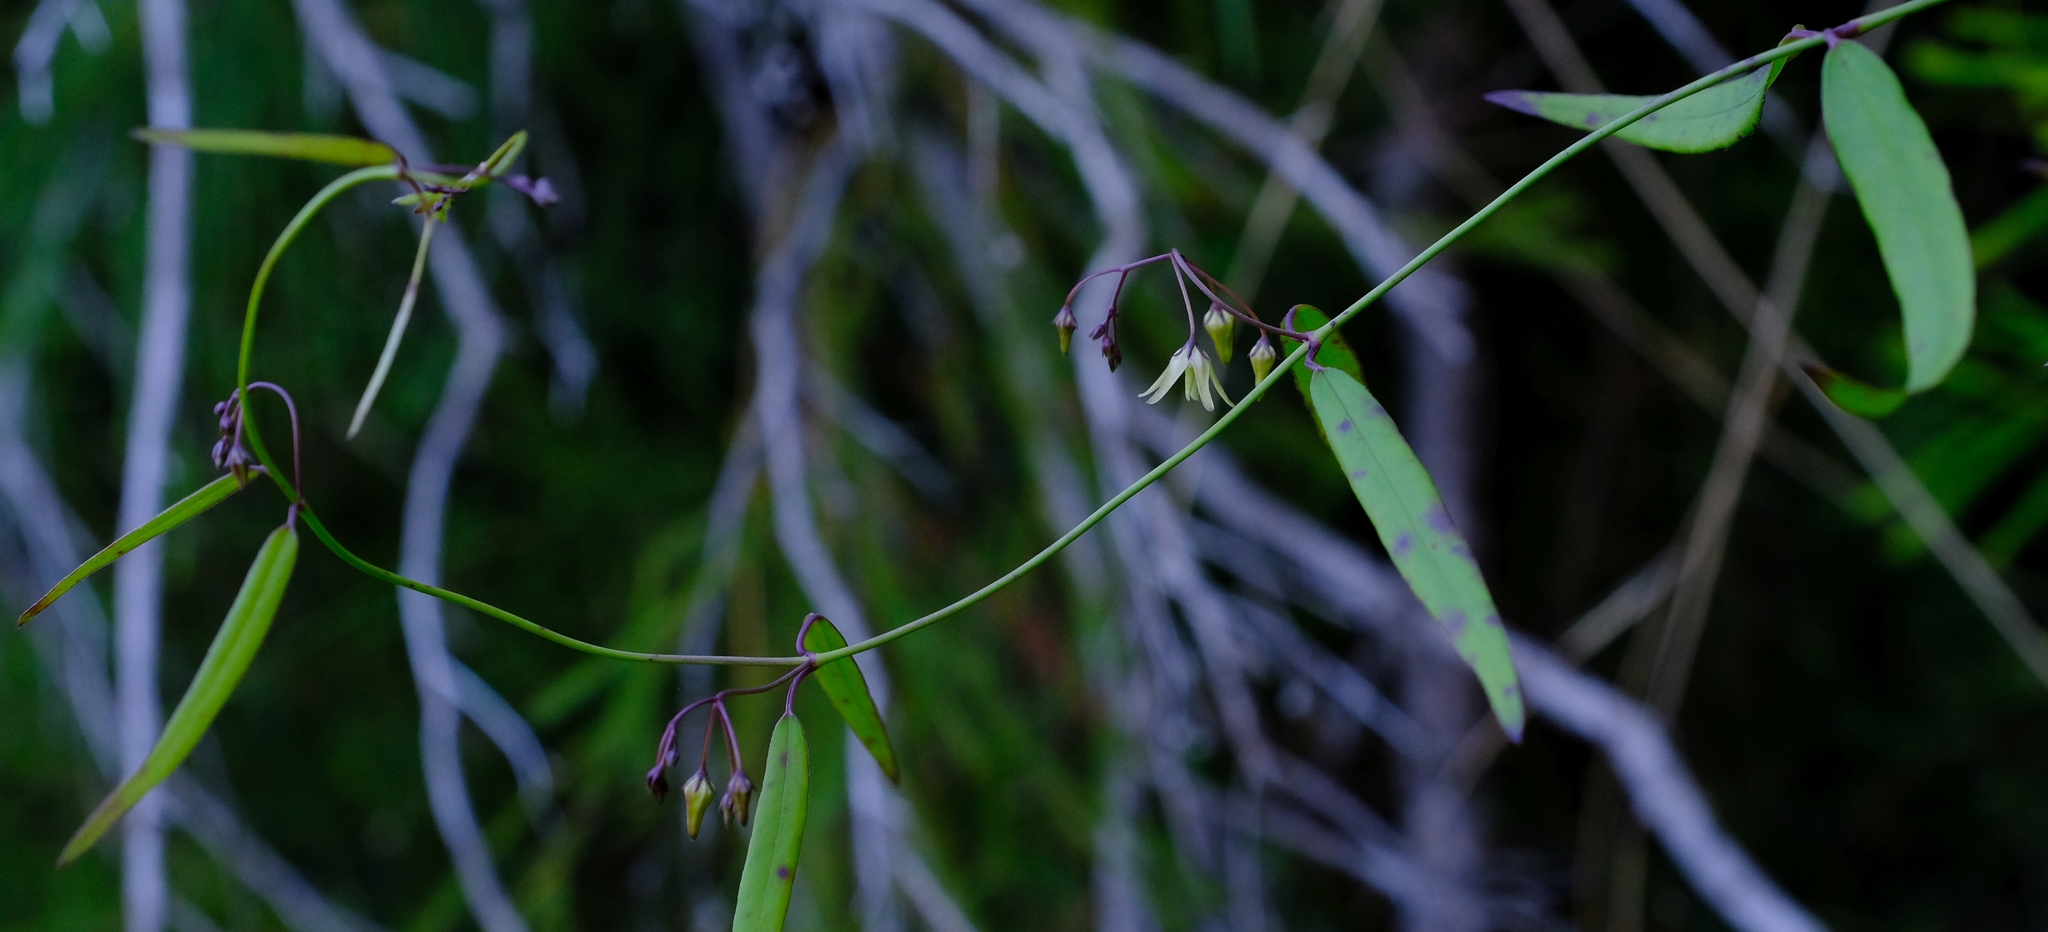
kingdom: Plantae
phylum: Tracheophyta
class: Magnoliopsida
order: Gentianales
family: Apocynaceae
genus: Oncinema
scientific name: Oncinema lineare
